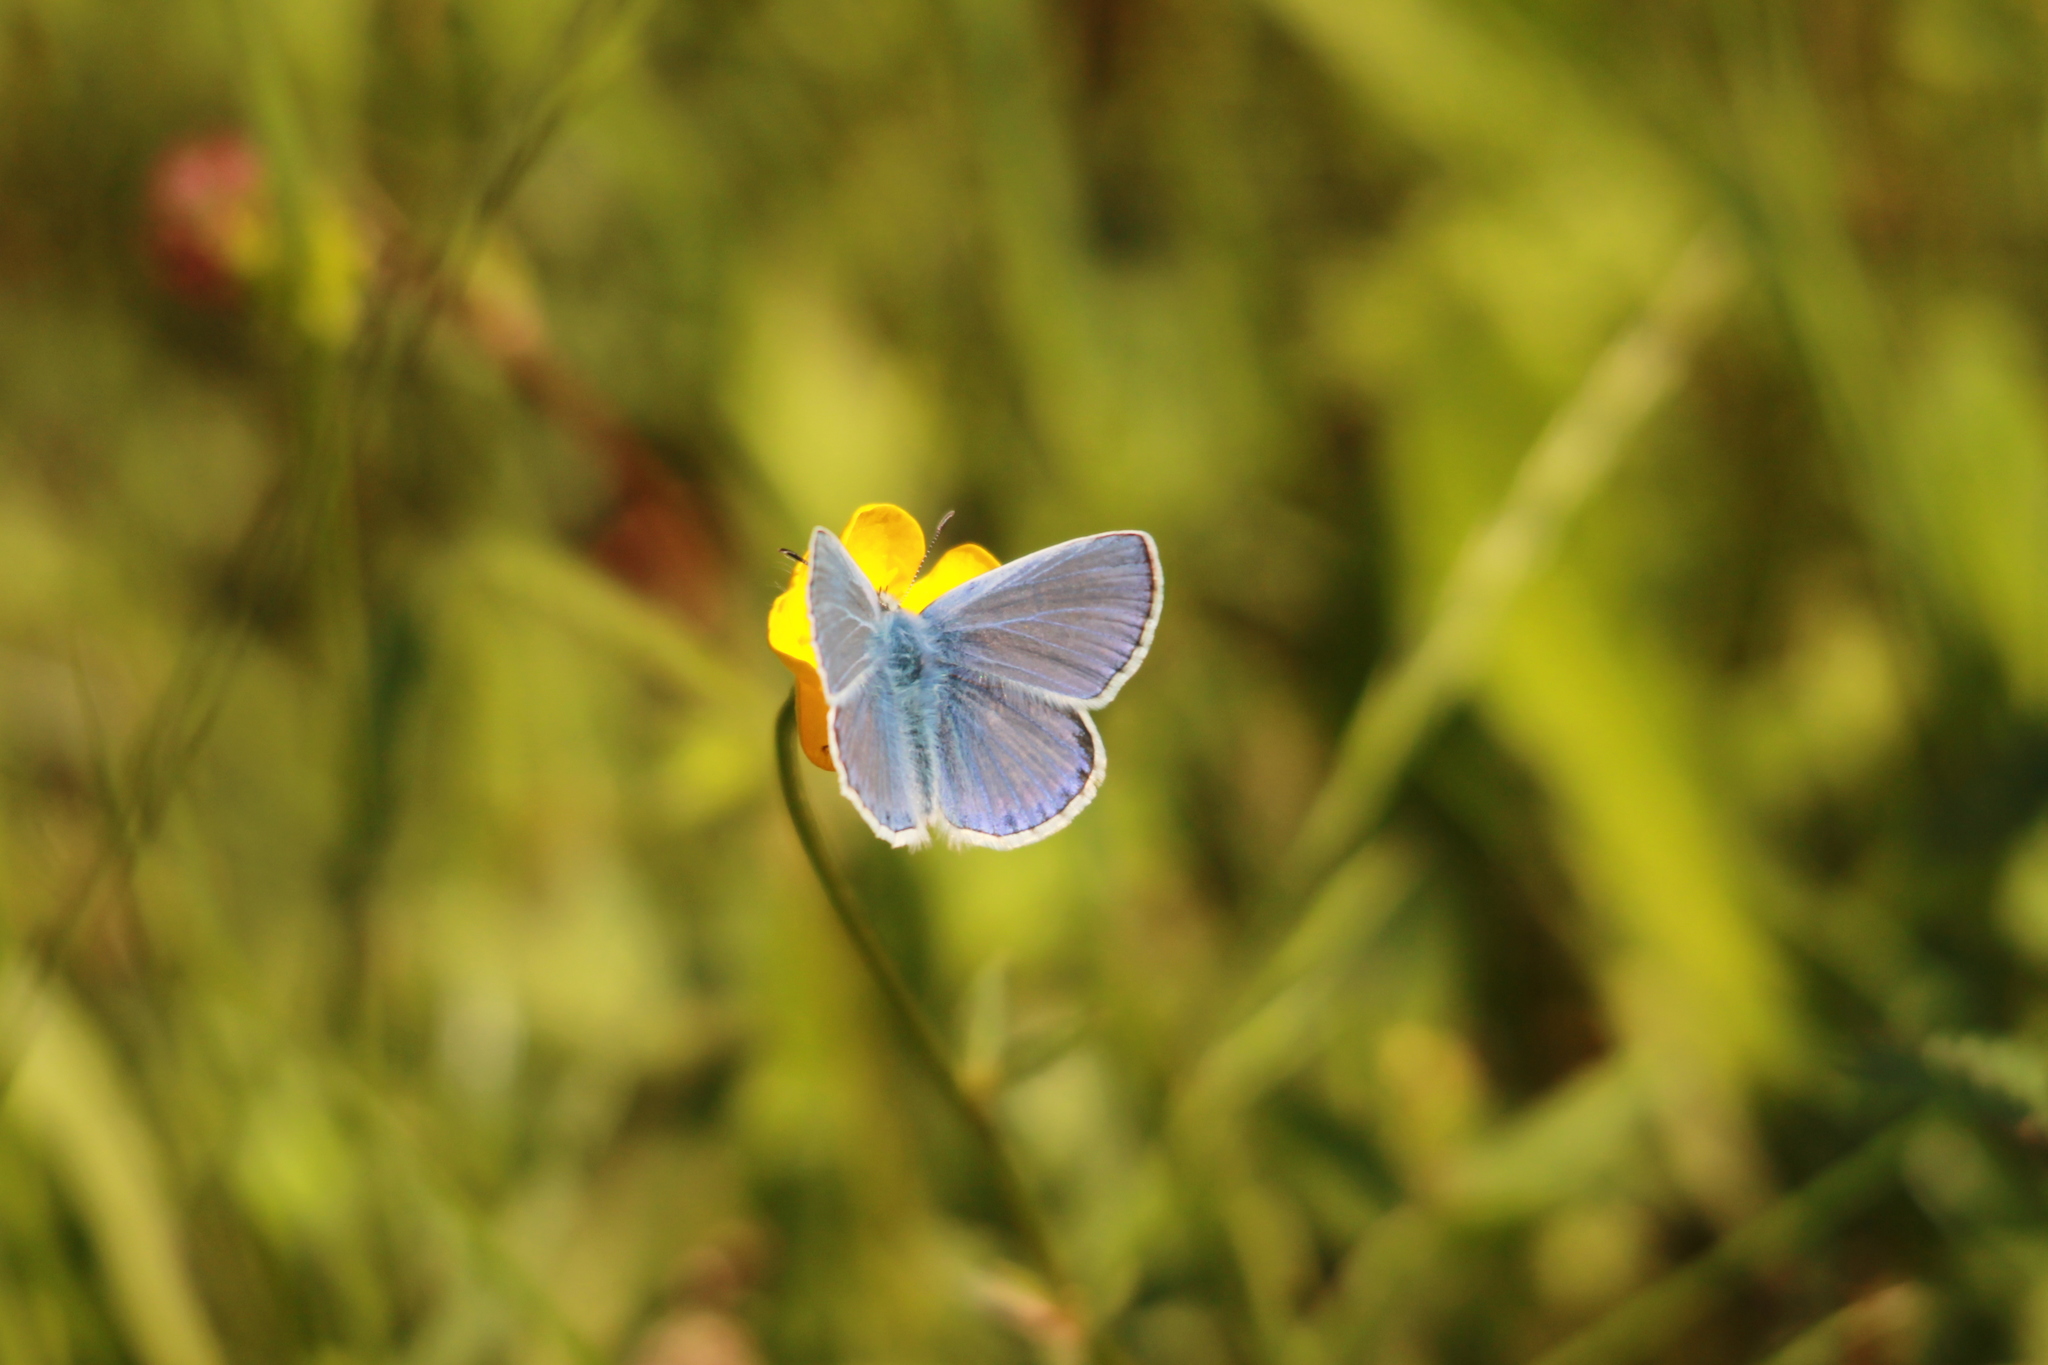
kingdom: Animalia
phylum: Arthropoda
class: Insecta
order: Lepidoptera
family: Lycaenidae
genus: Polyommatus
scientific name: Polyommatus icarus
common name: Common blue
